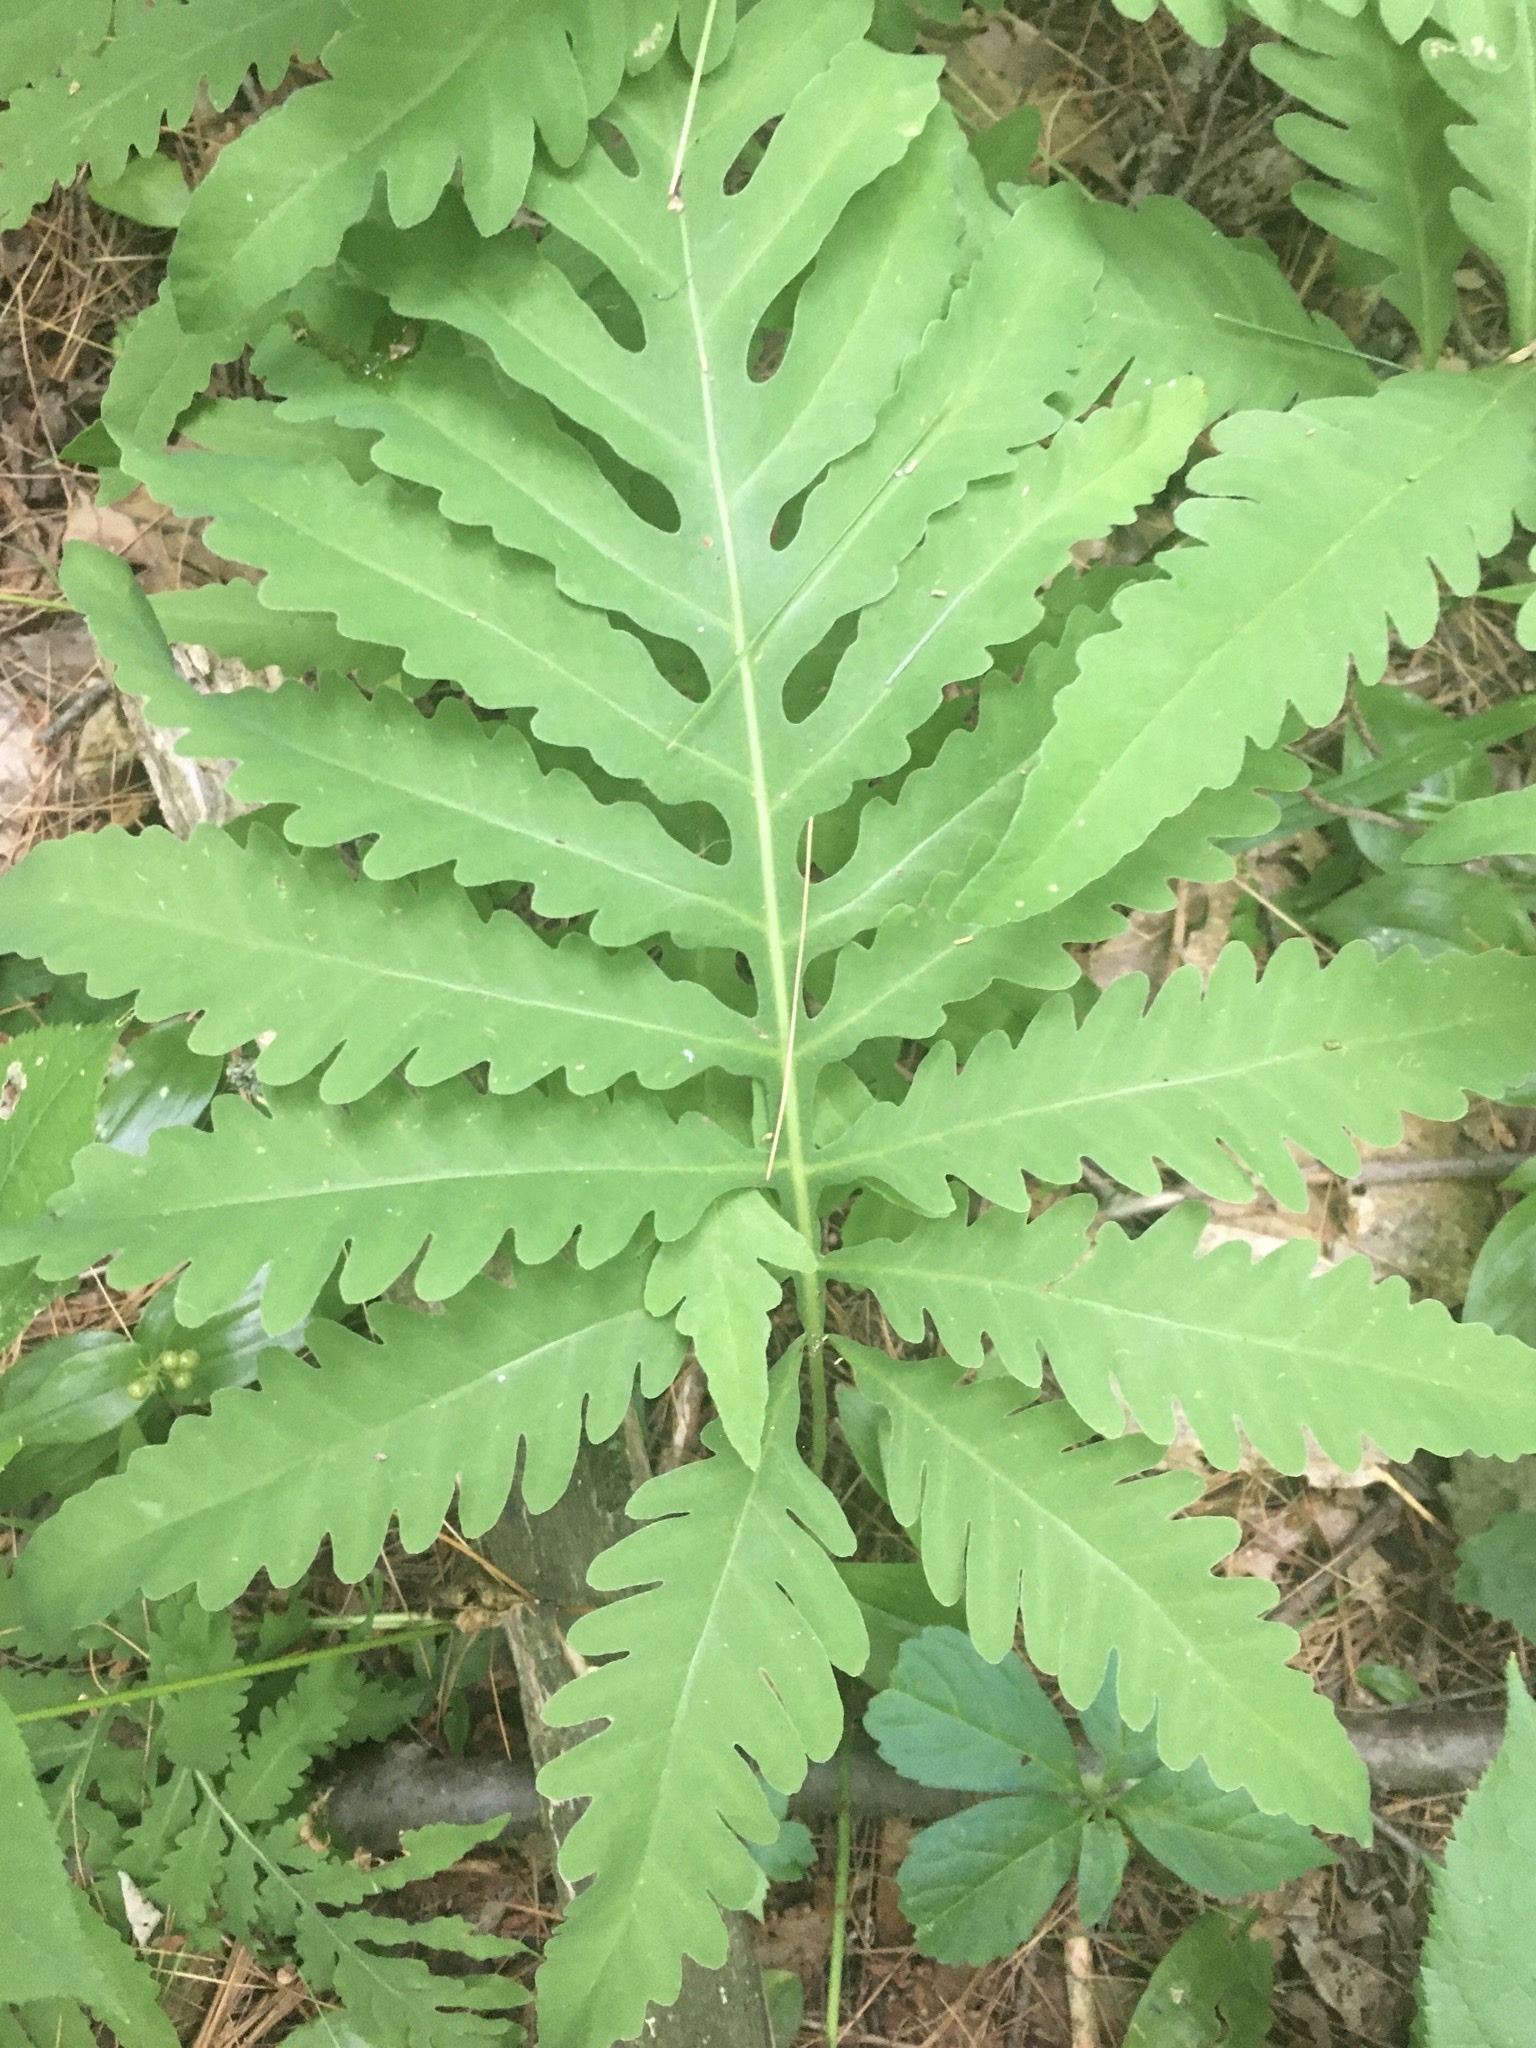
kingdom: Plantae
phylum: Tracheophyta
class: Polypodiopsida
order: Polypodiales
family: Onocleaceae
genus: Onoclea
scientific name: Onoclea sensibilis
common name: Sensitive fern
